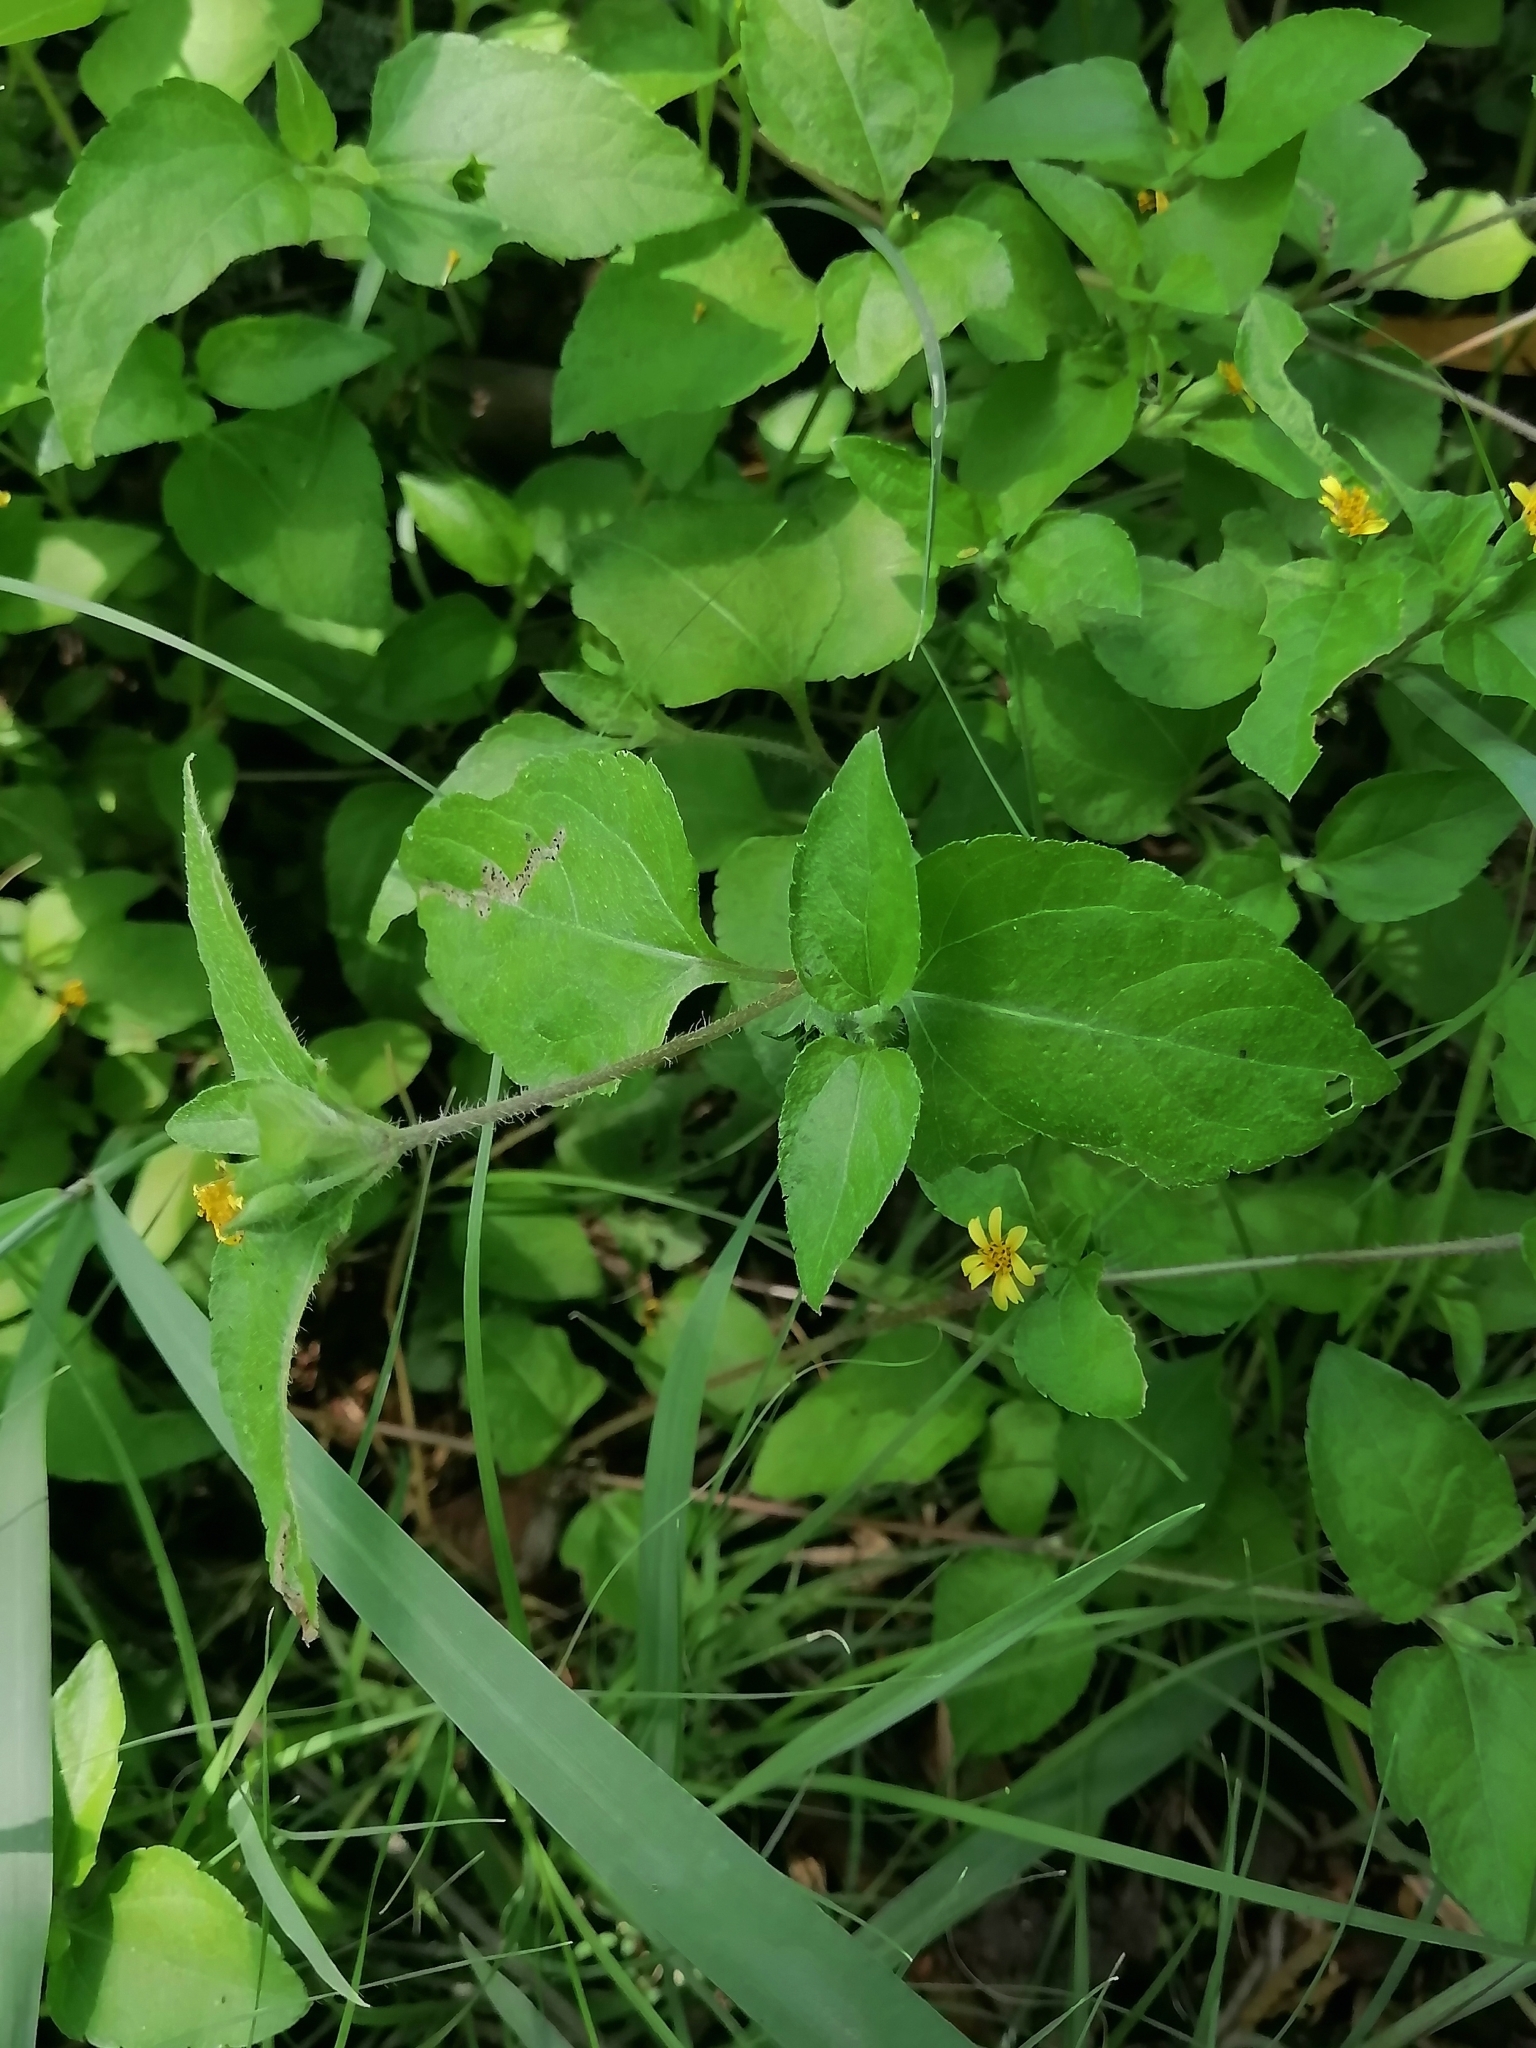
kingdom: Plantae
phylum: Tracheophyta
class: Magnoliopsida
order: Asterales
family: Asteraceae
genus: Calyptocarpus
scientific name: Calyptocarpus vialis
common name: Straggler daisy
